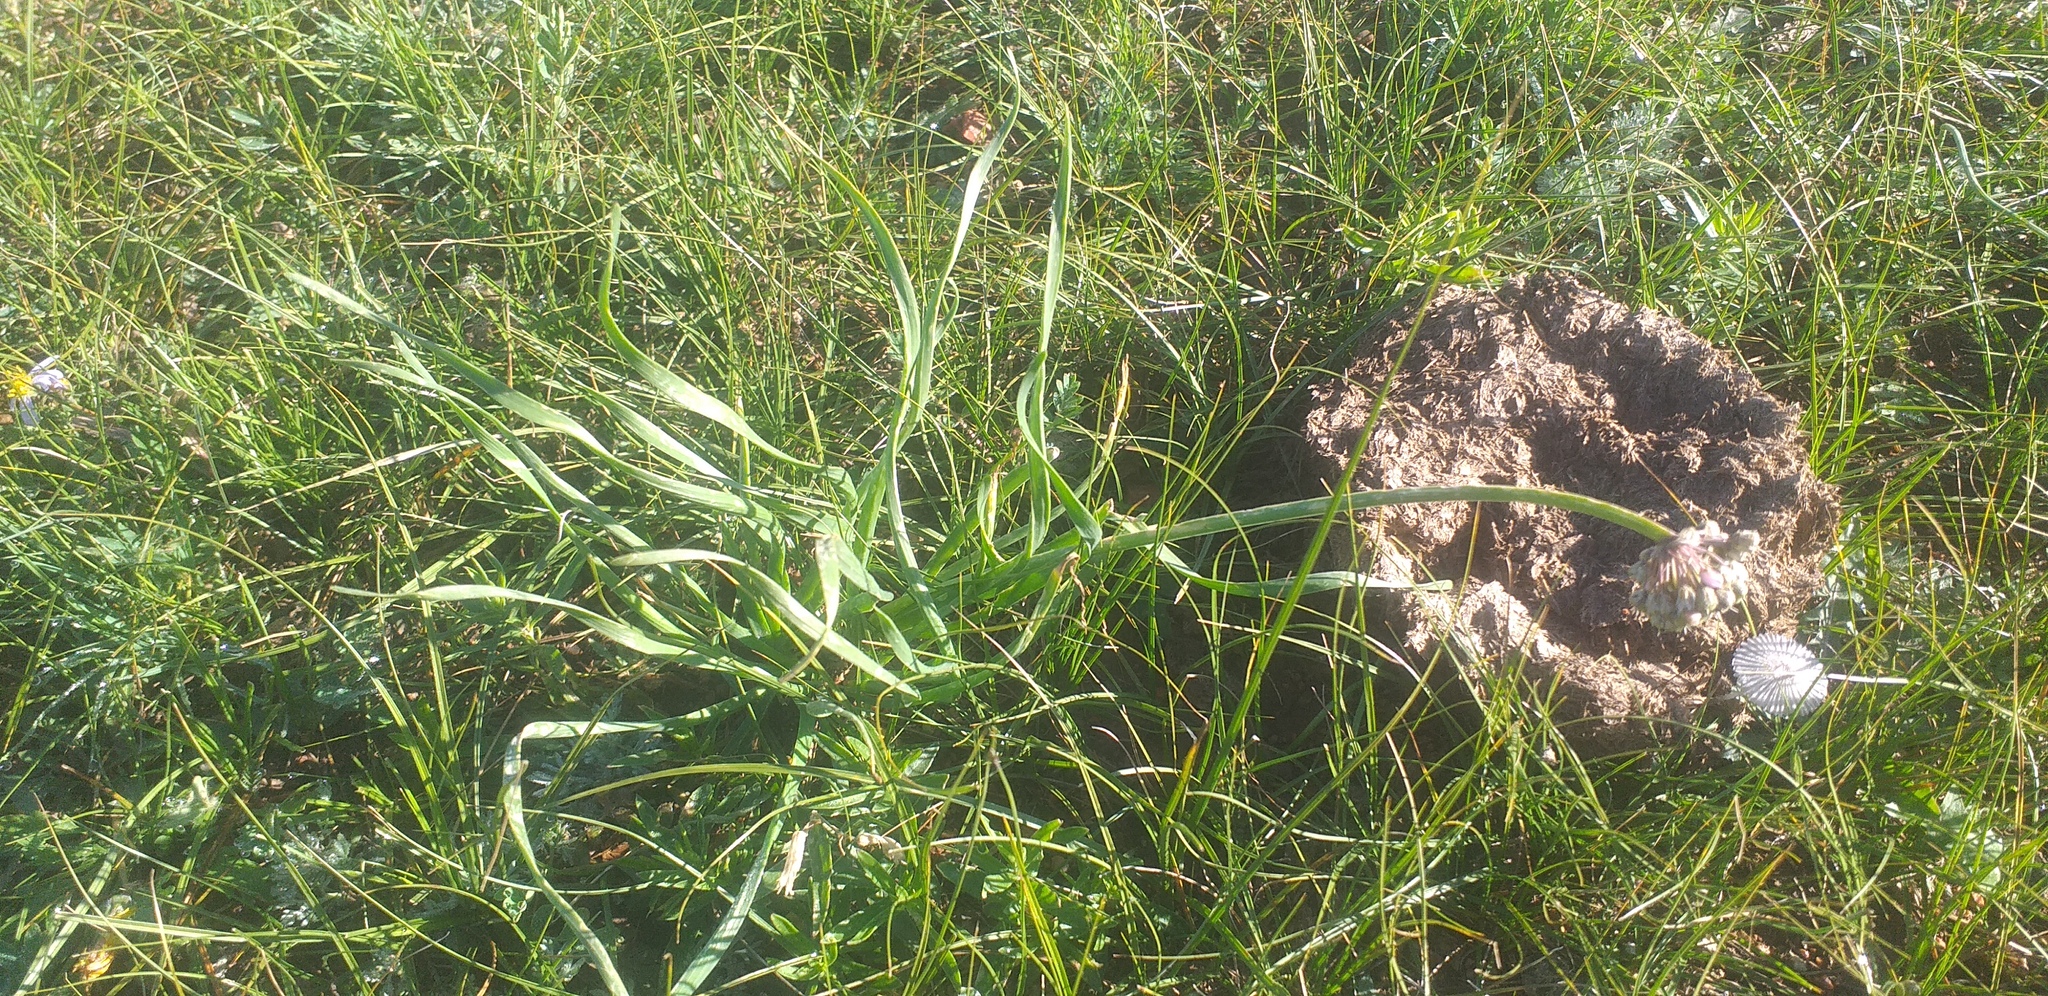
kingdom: Plantae
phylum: Tracheophyta
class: Liliopsida
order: Asparagales
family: Amaryllidaceae
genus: Allium
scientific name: Allium senescens
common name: German garlic
